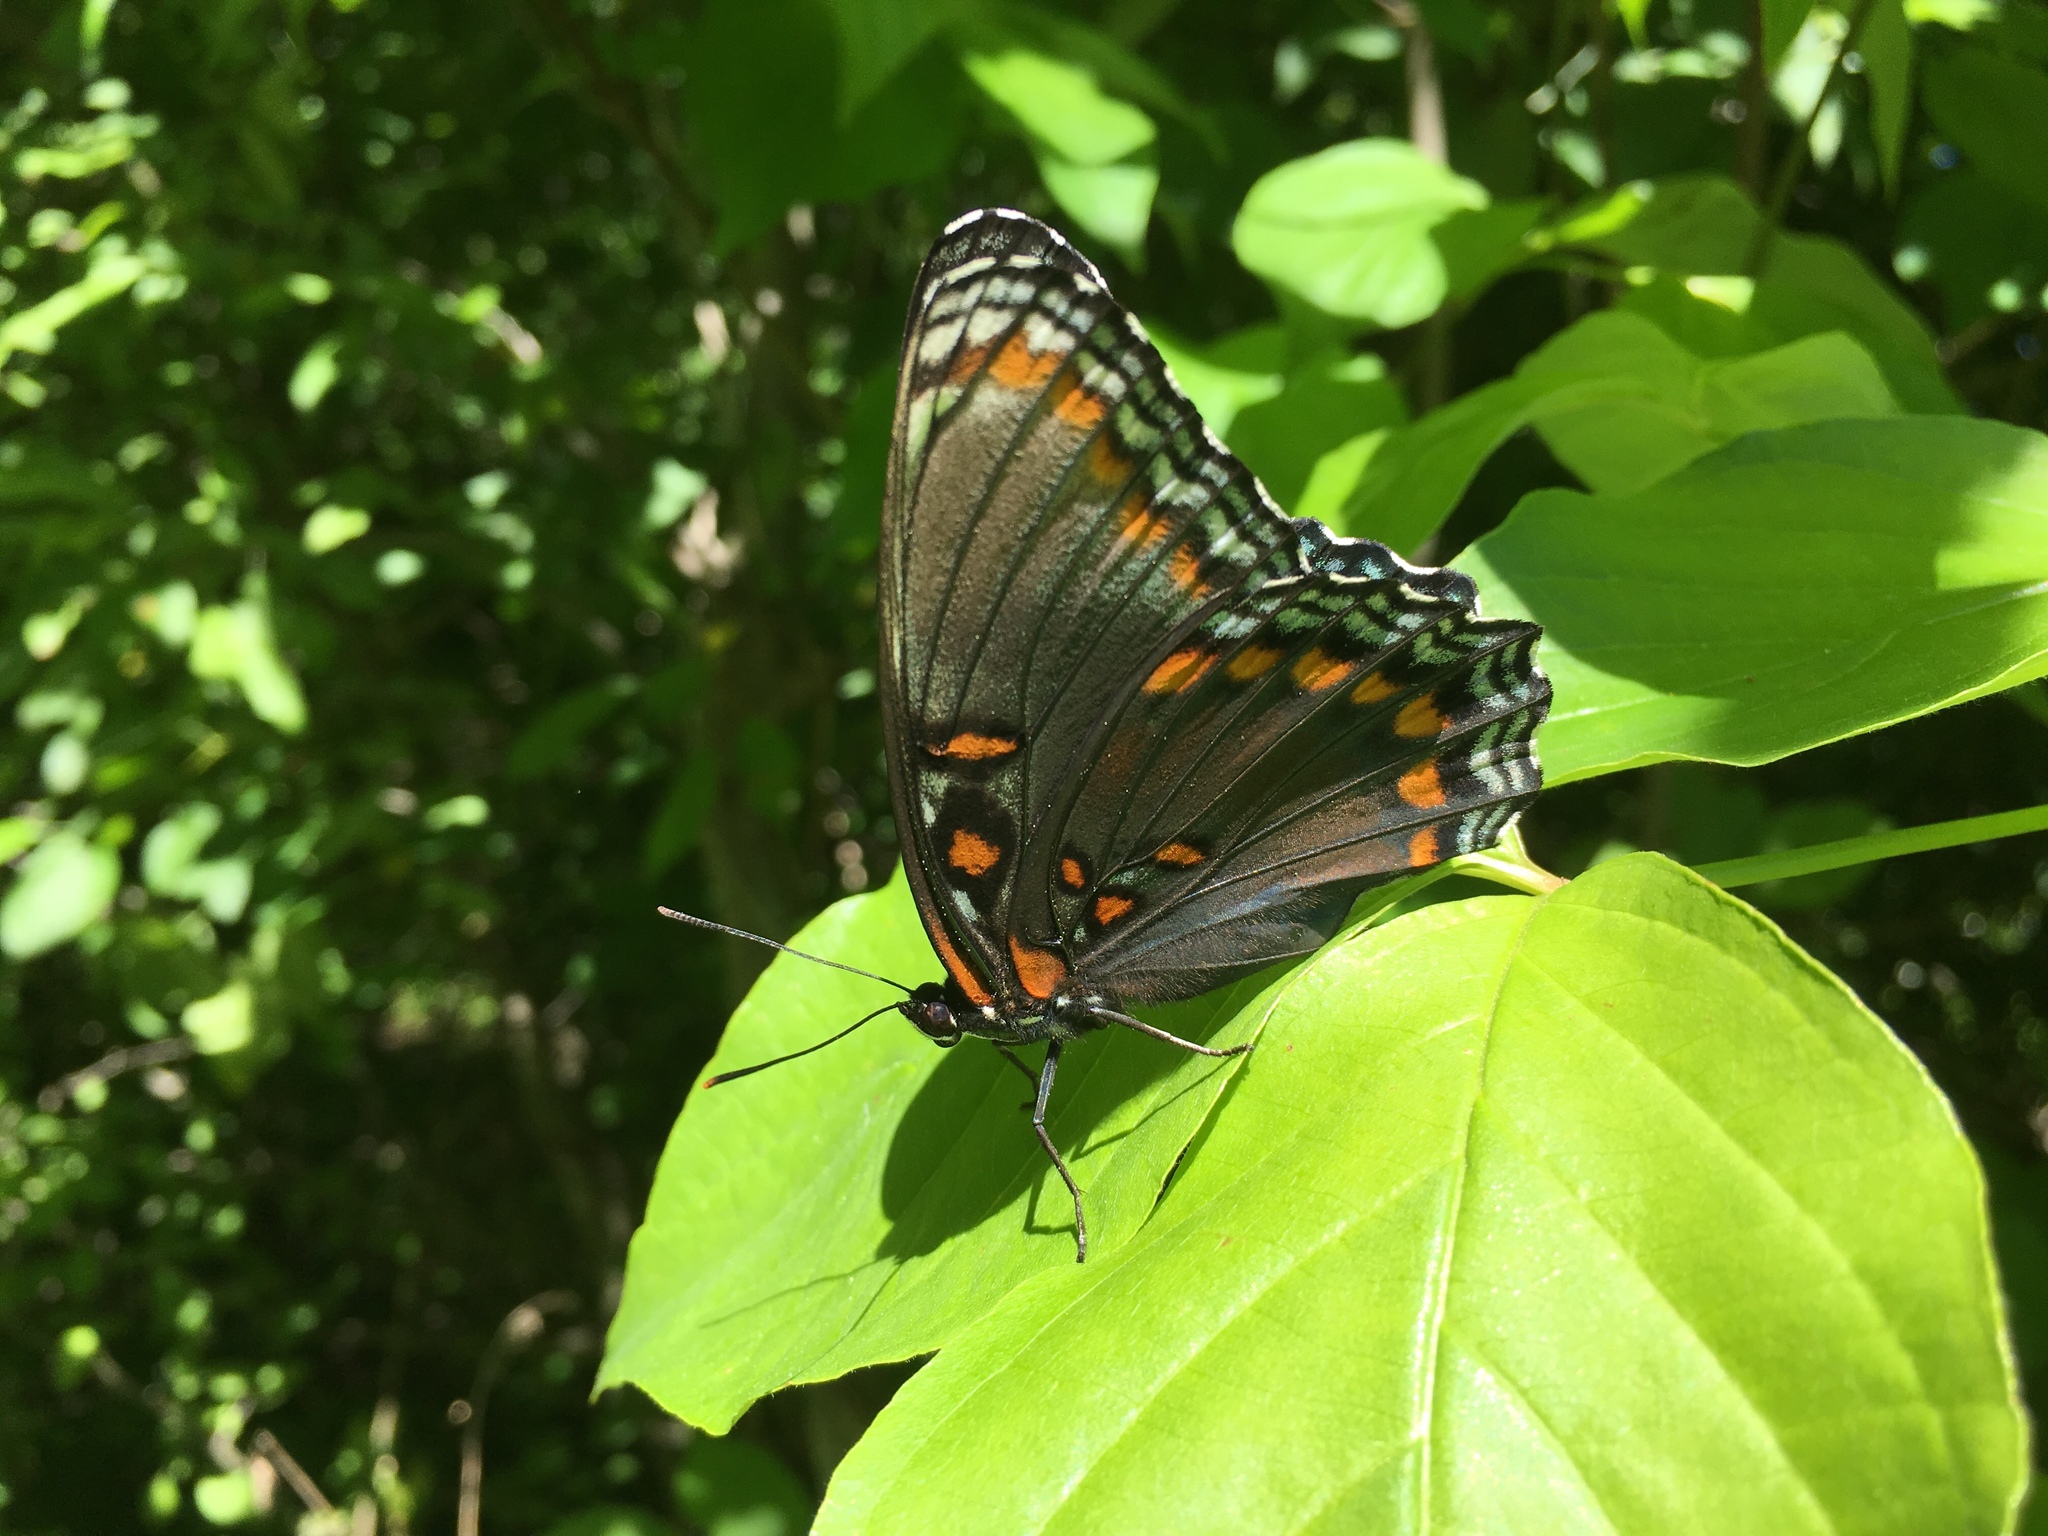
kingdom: Animalia
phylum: Arthropoda
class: Insecta
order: Lepidoptera
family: Nymphalidae
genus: Limenitis
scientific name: Limenitis astyanax
